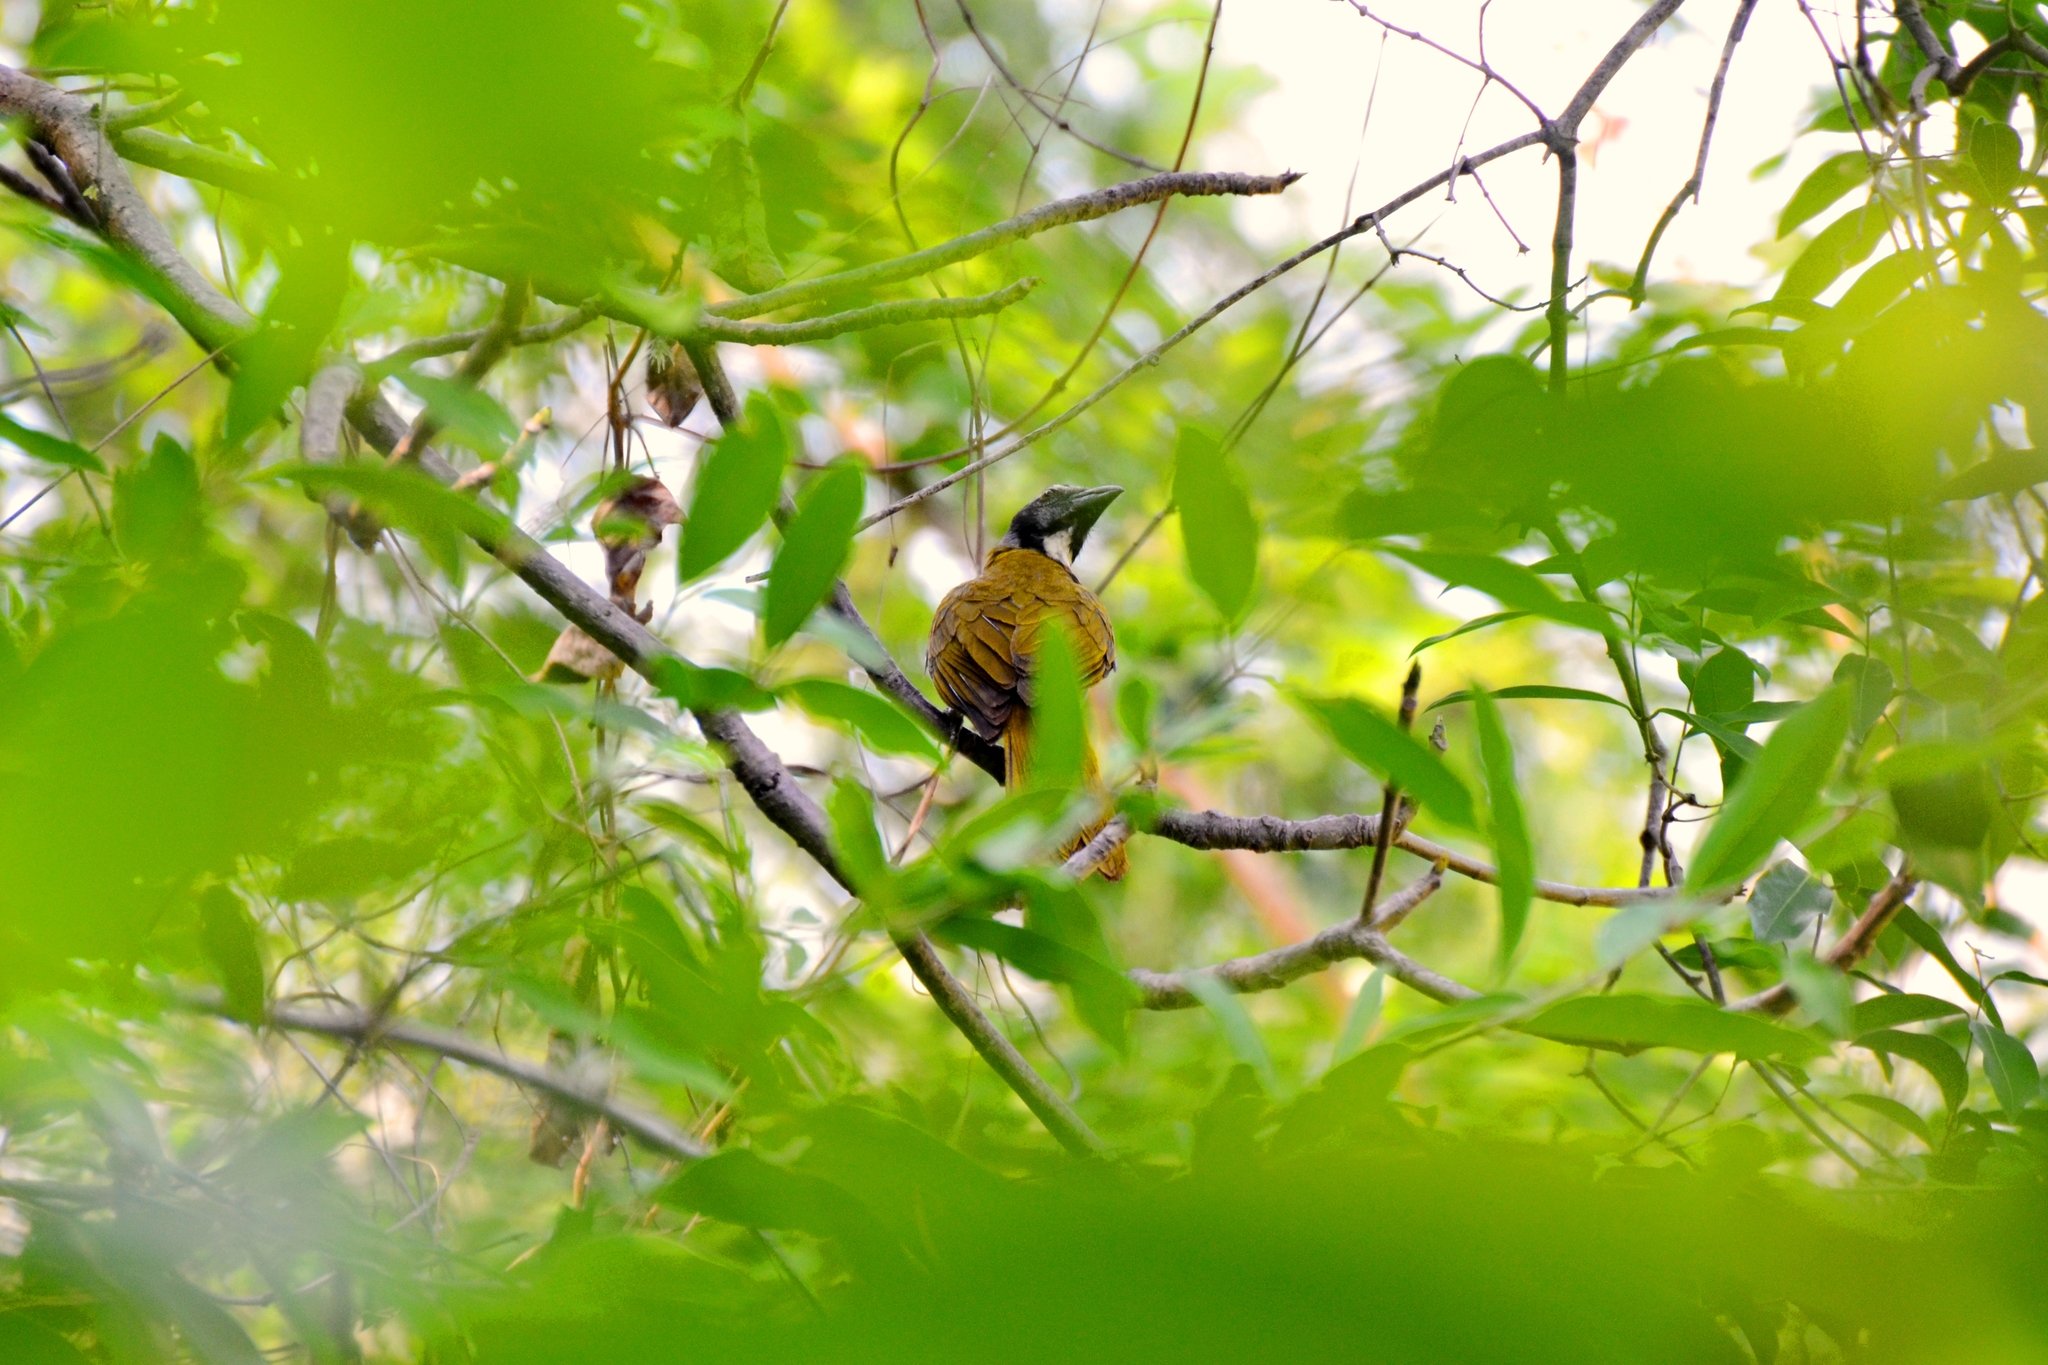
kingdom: Animalia
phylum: Chordata
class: Aves
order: Passeriformes
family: Thraupidae
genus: Saltator
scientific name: Saltator atriceps
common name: Black-headed saltator
